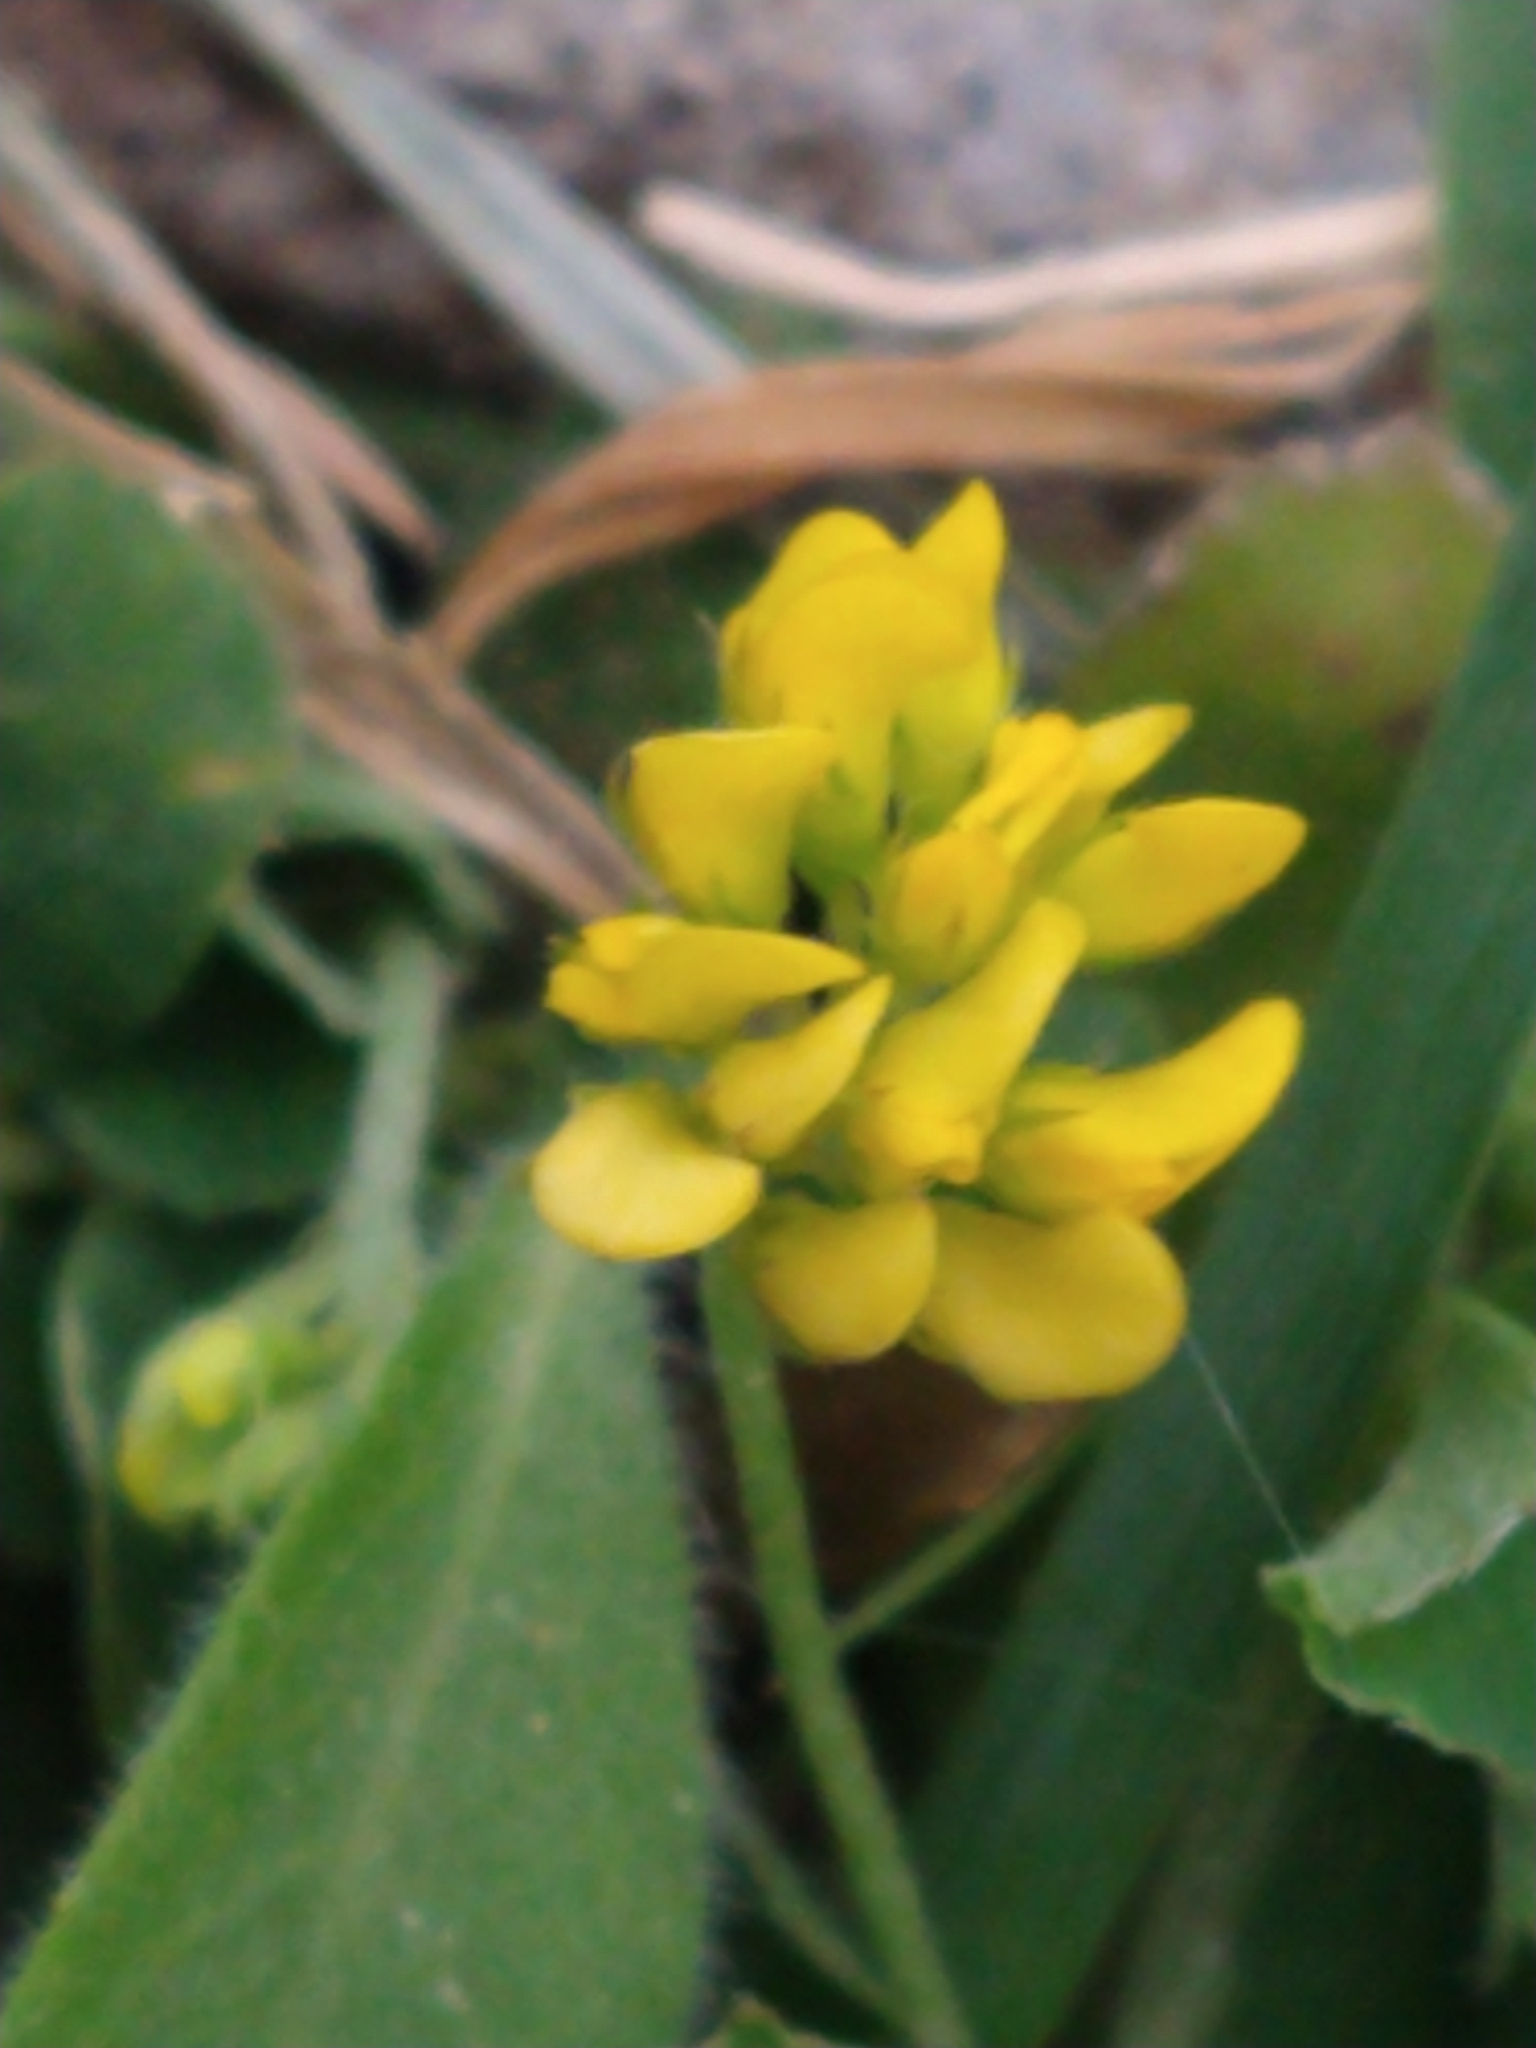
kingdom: Plantae
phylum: Tracheophyta
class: Magnoliopsida
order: Fabales
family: Fabaceae
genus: Medicago
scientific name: Medicago lupulina
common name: Black medick
